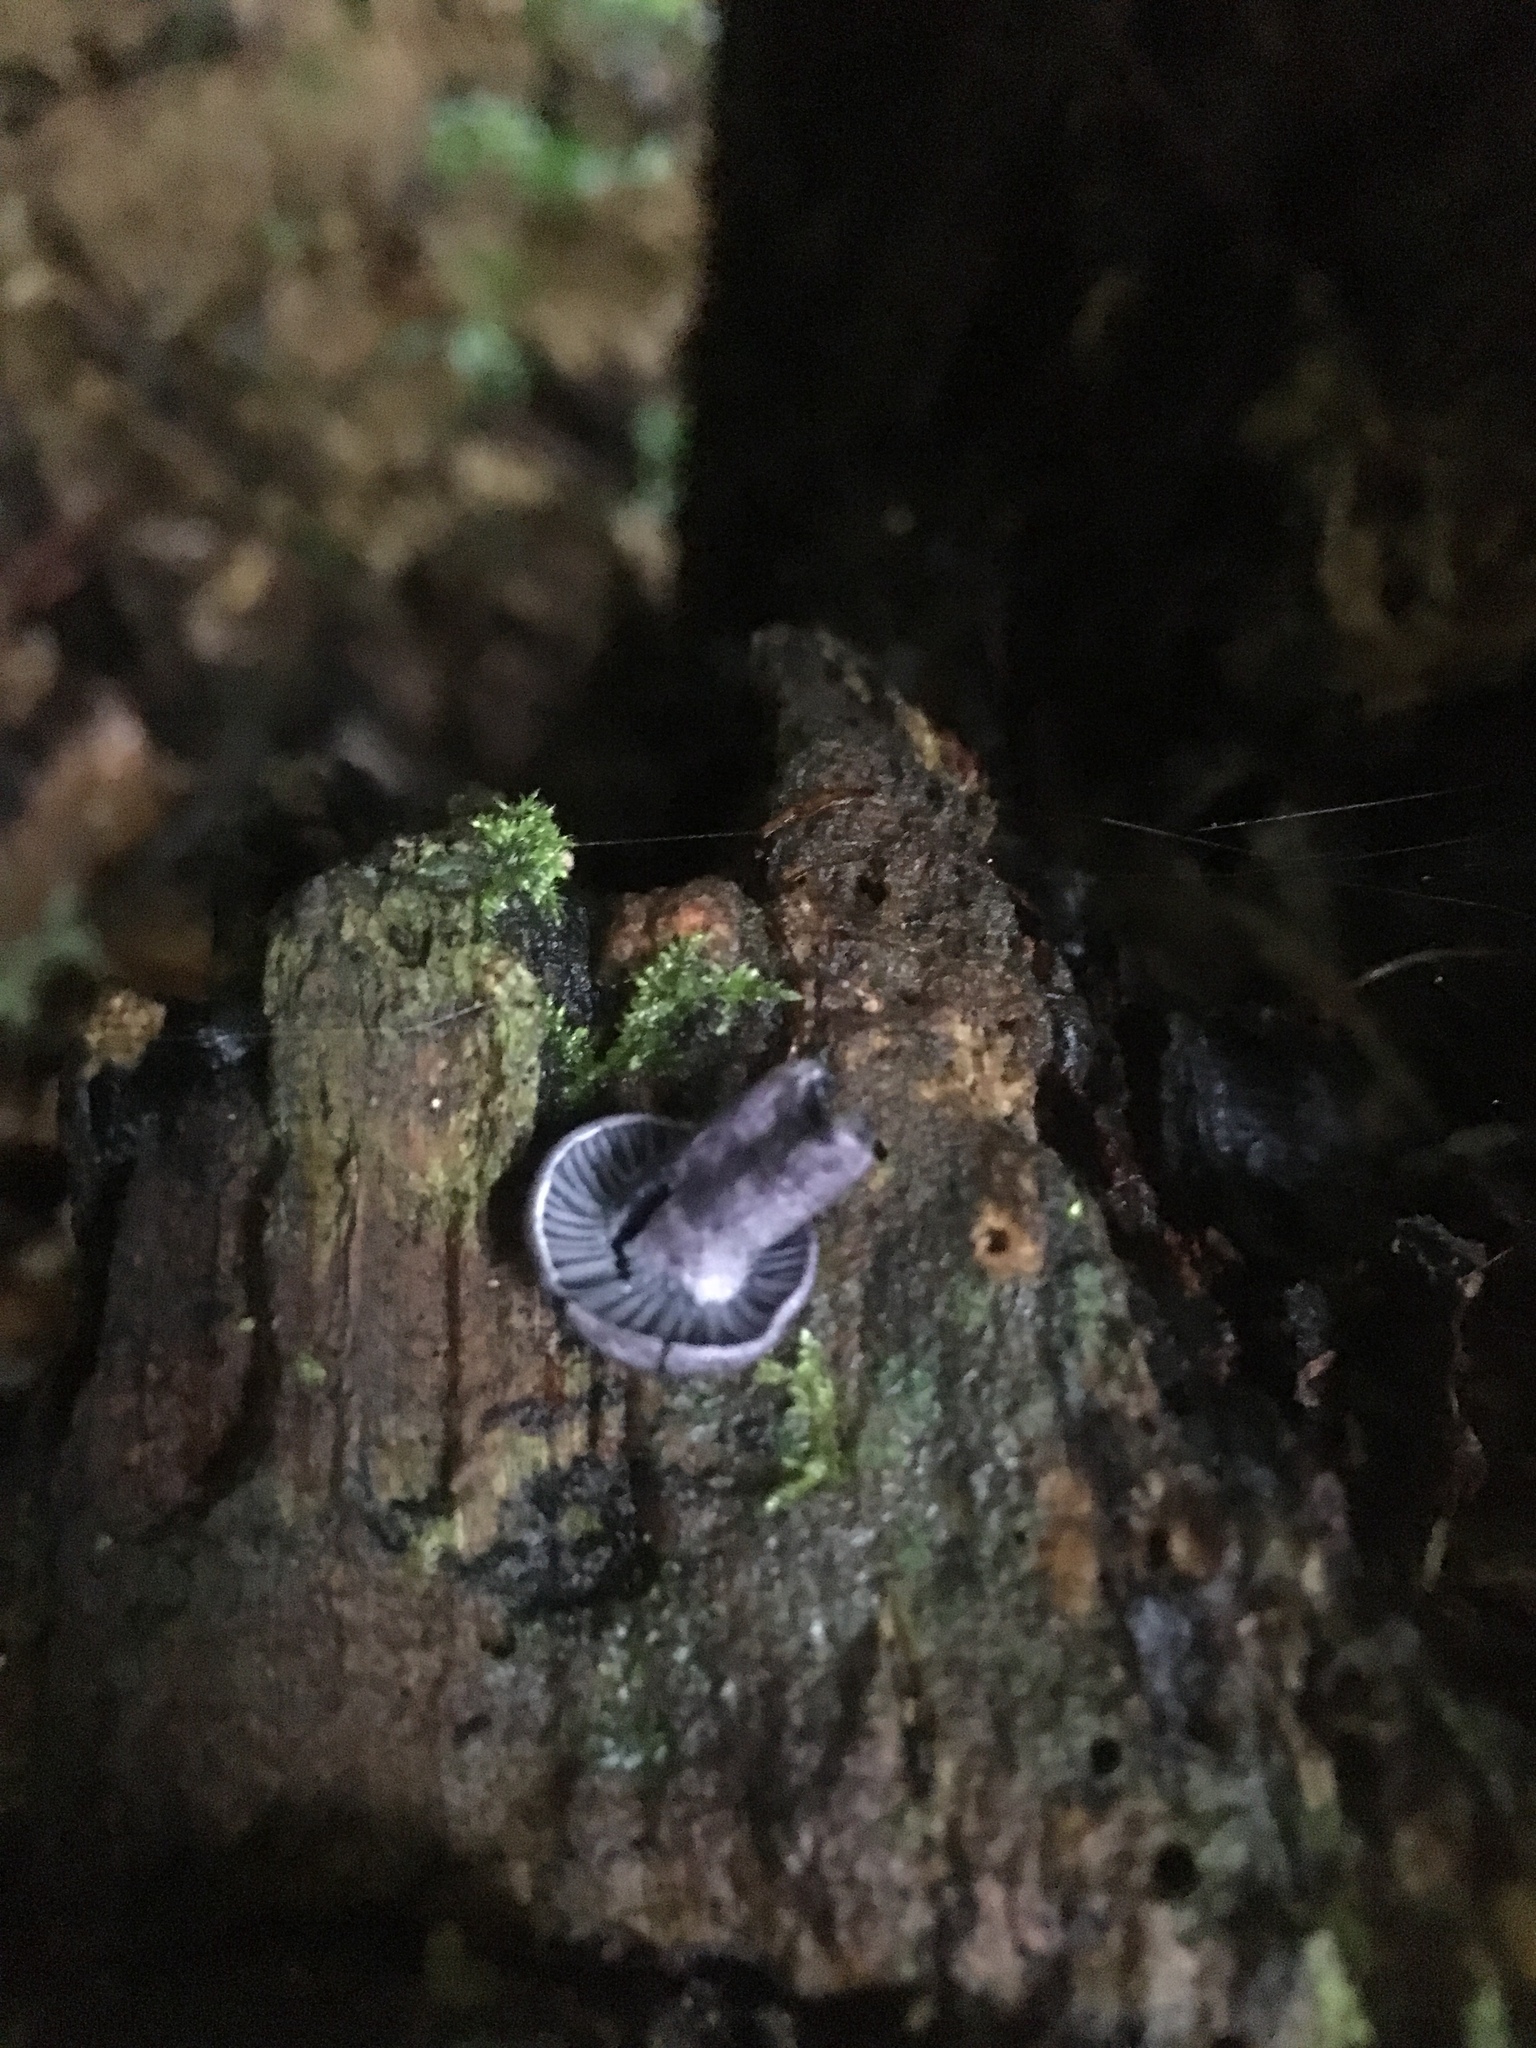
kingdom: Fungi
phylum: Basidiomycota
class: Agaricomycetes
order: Agaricales
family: Marasmiaceae
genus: Gerronema
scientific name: Gerronema waikanaense
